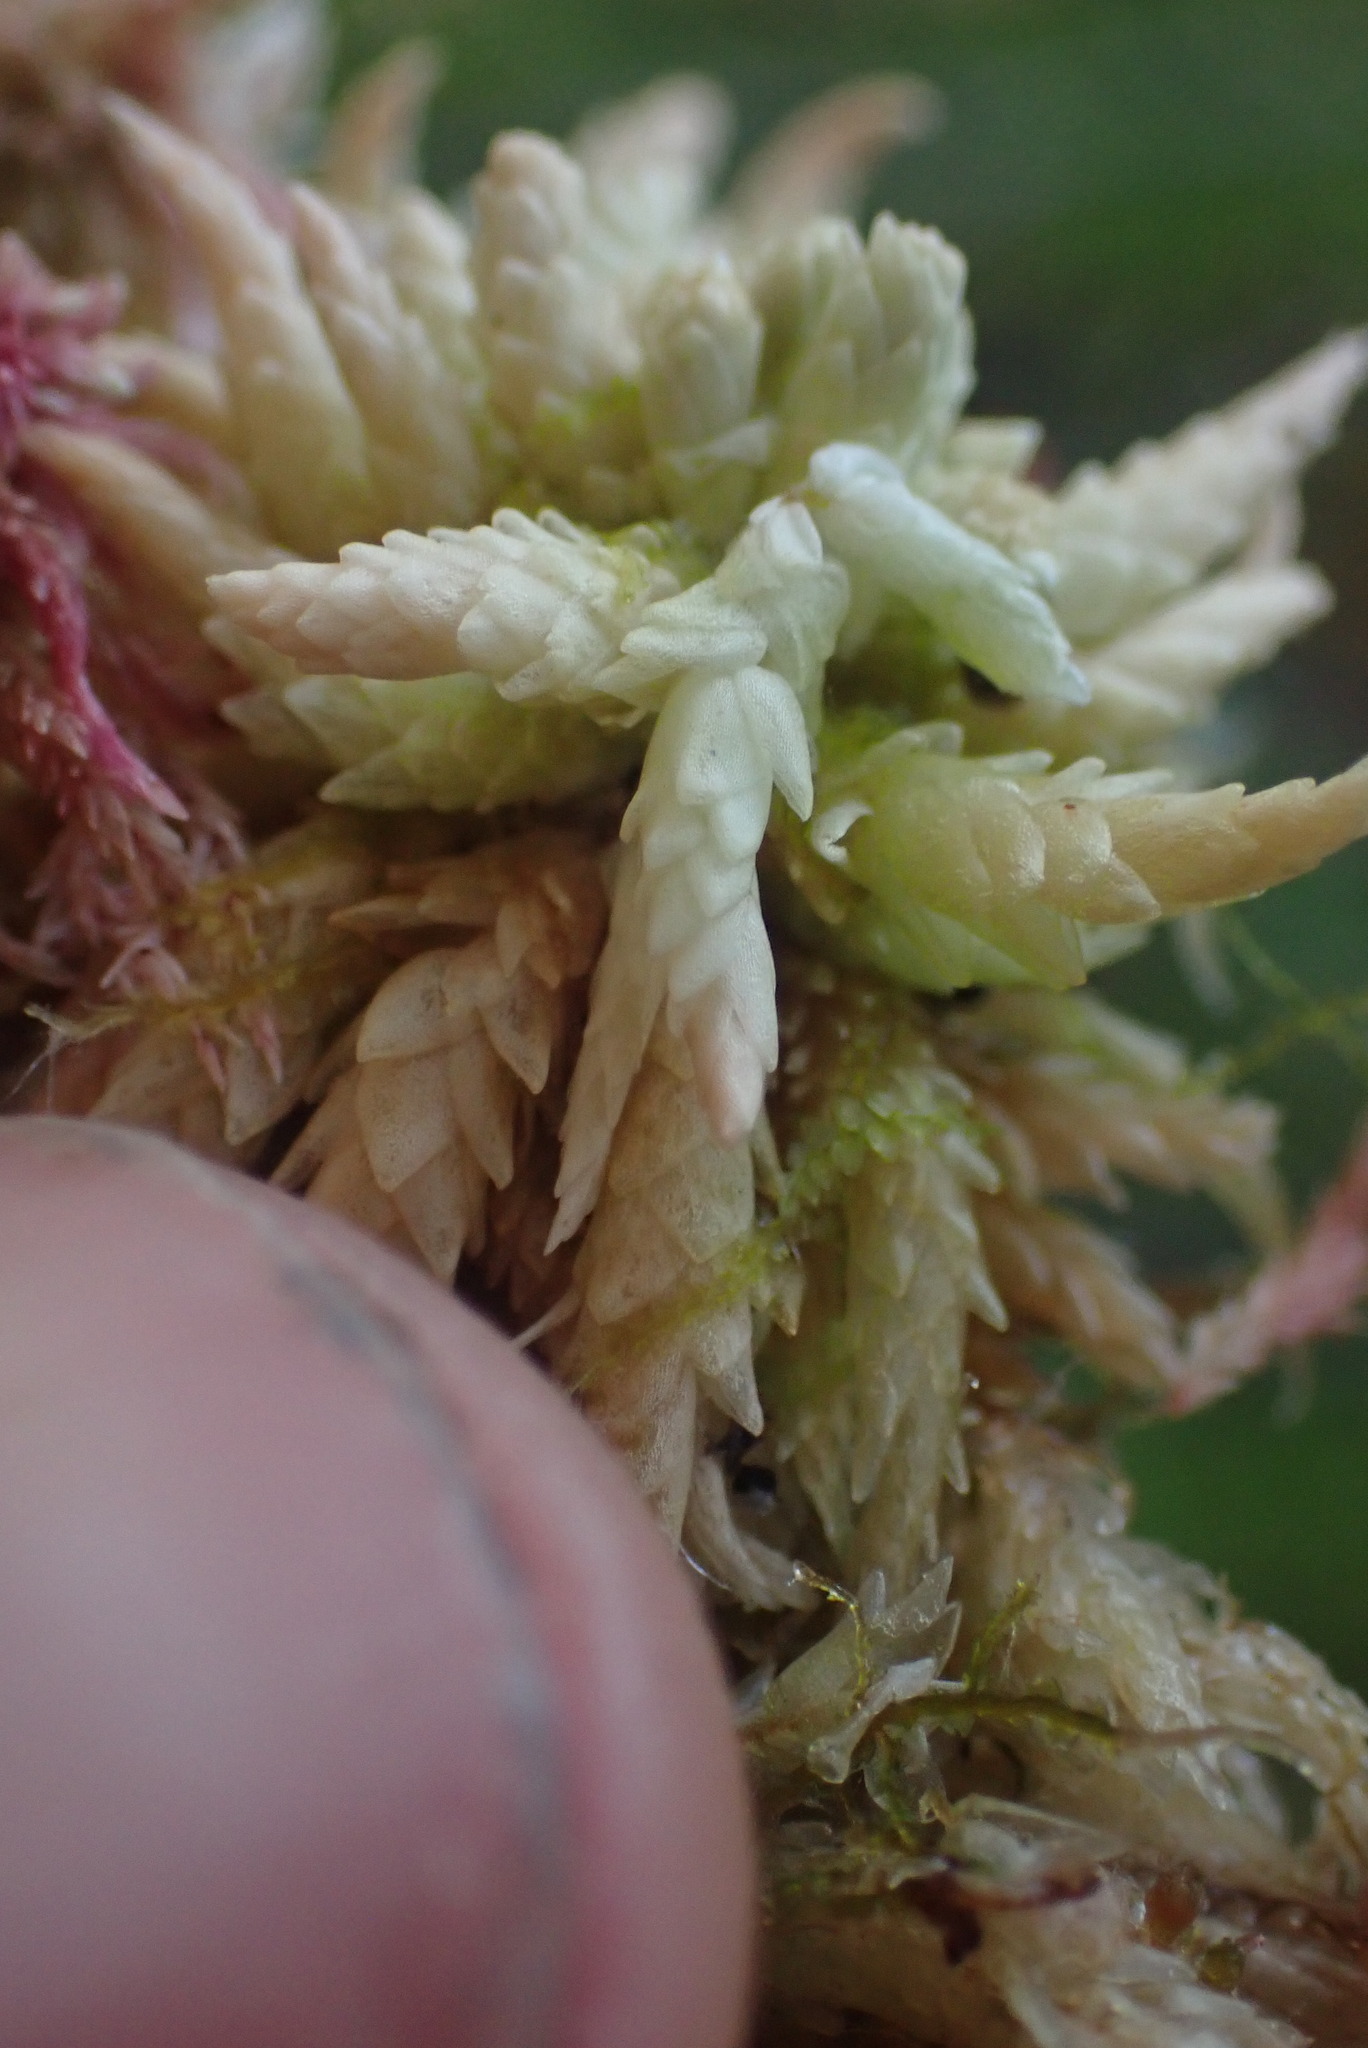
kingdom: Plantae
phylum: Bryophyta
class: Sphagnopsida
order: Sphagnales
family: Sphagnaceae
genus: Sphagnum
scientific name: Sphagnum palustre
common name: Blunt-leaved bog-moss
